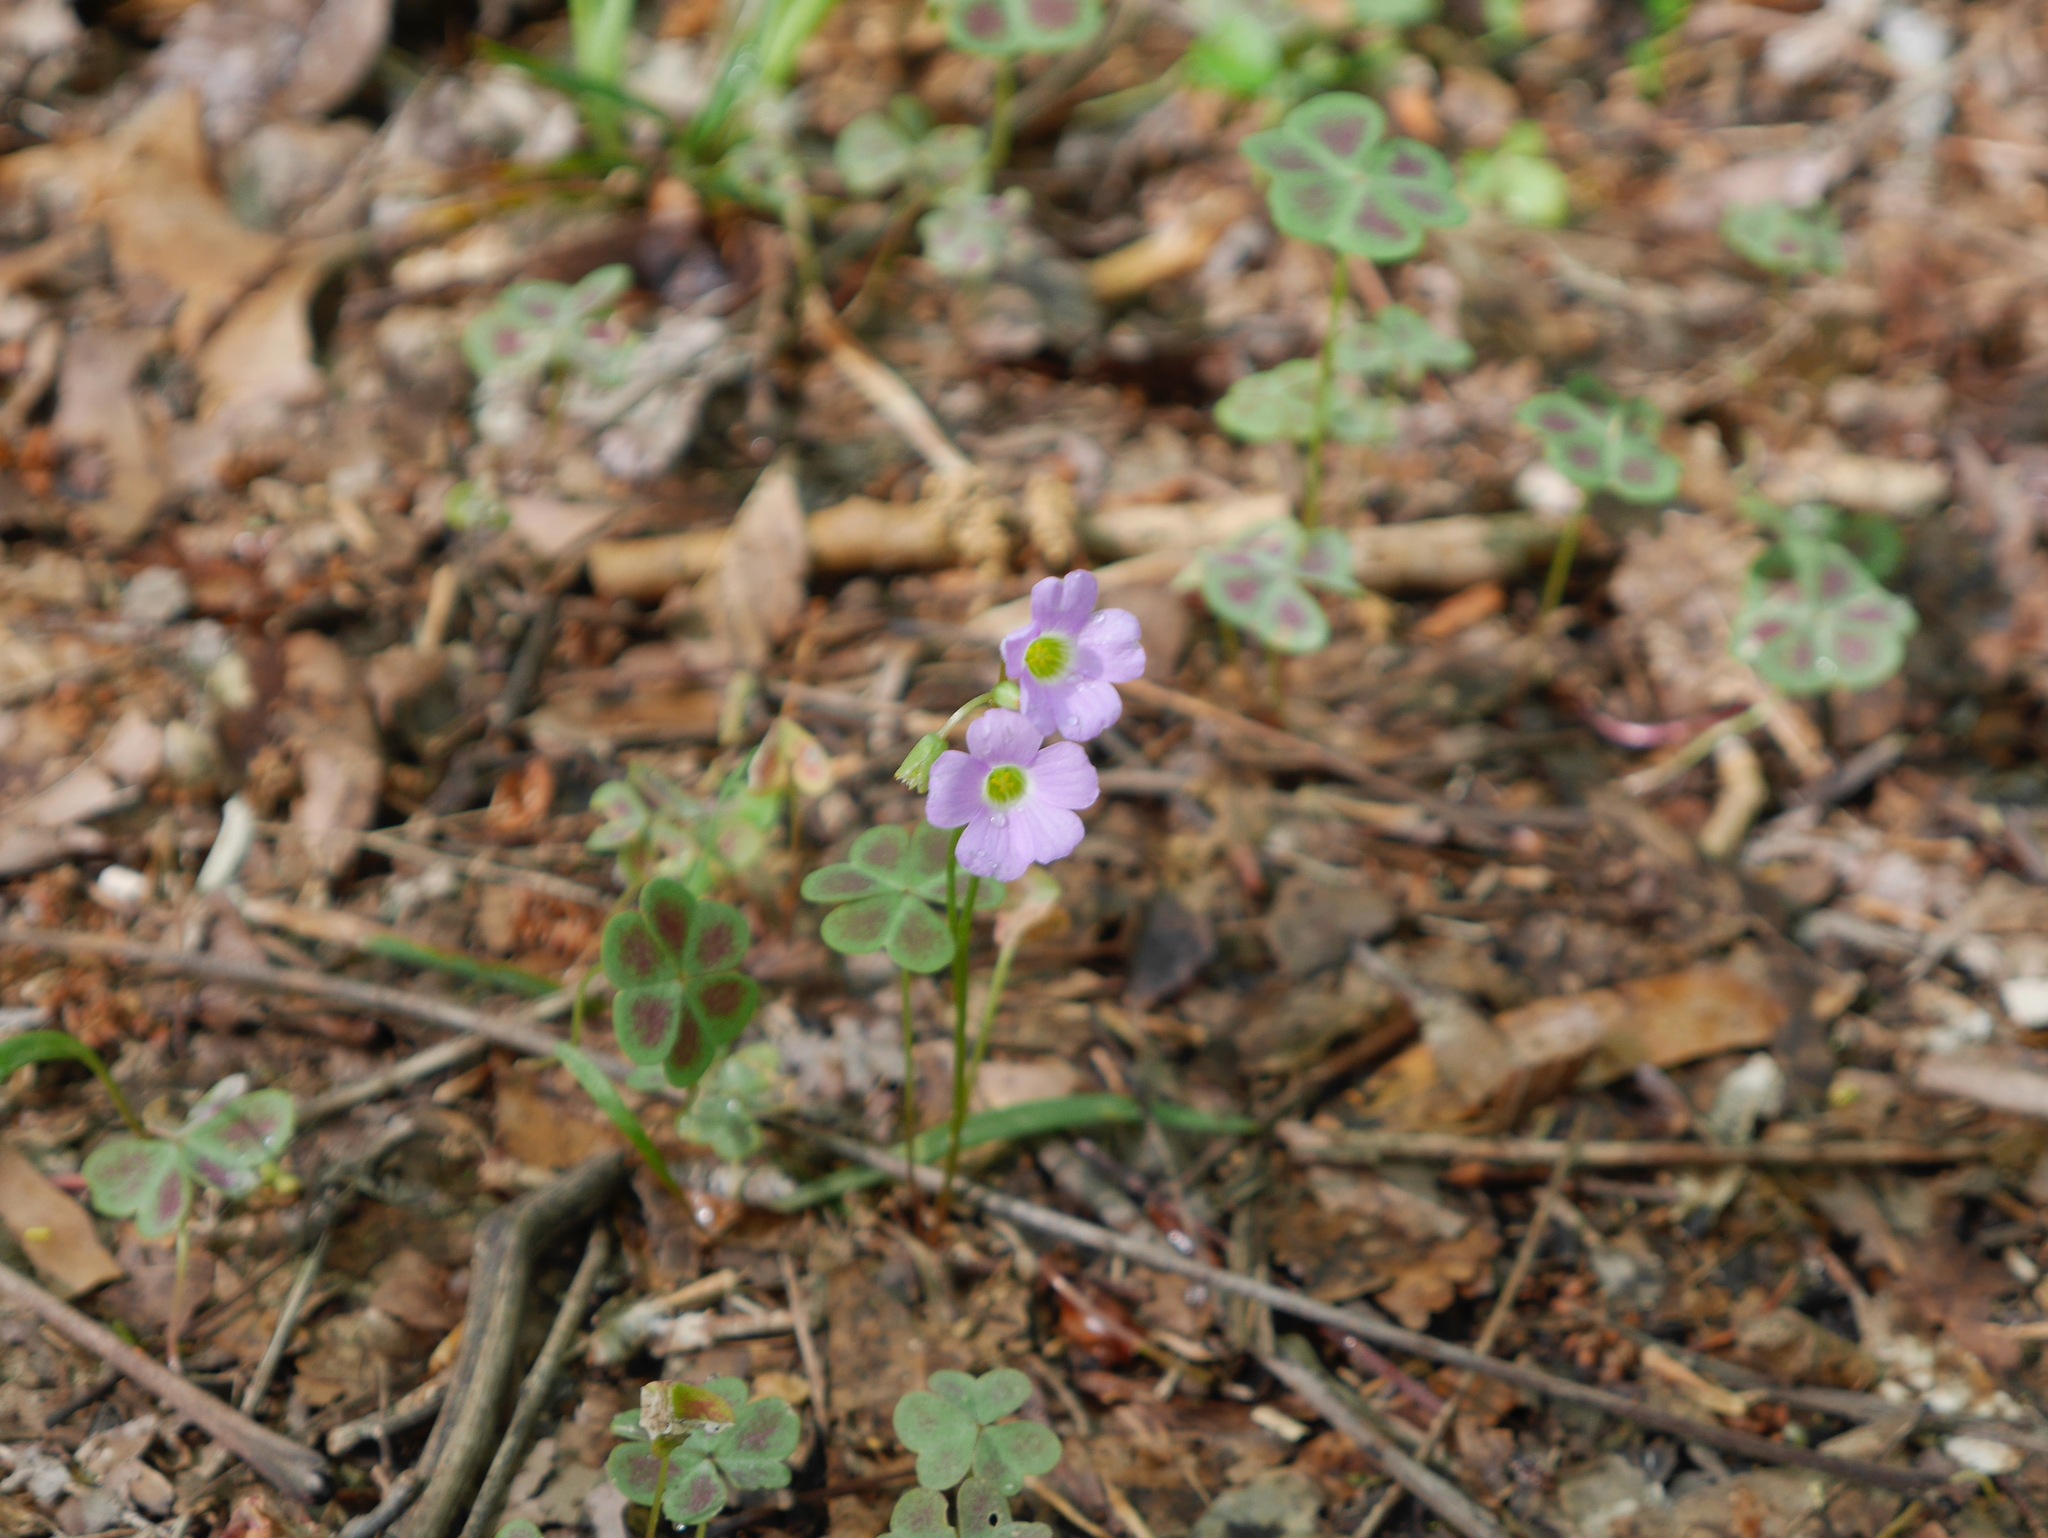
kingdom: Plantae
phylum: Tracheophyta
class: Magnoliopsida
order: Oxalidales
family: Oxalidaceae
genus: Oxalis
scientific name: Oxalis violacea
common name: Violet wood-sorrel
